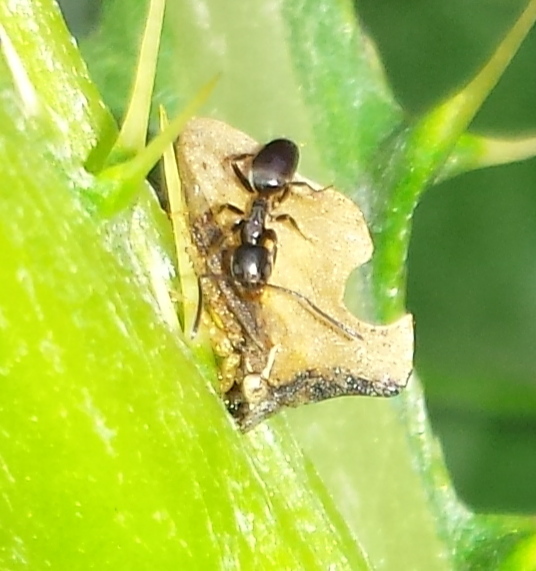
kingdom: Animalia
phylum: Arthropoda
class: Insecta
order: Hemiptera
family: Membracidae
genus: Entylia
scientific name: Entylia carinata
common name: Keeled treehopper
